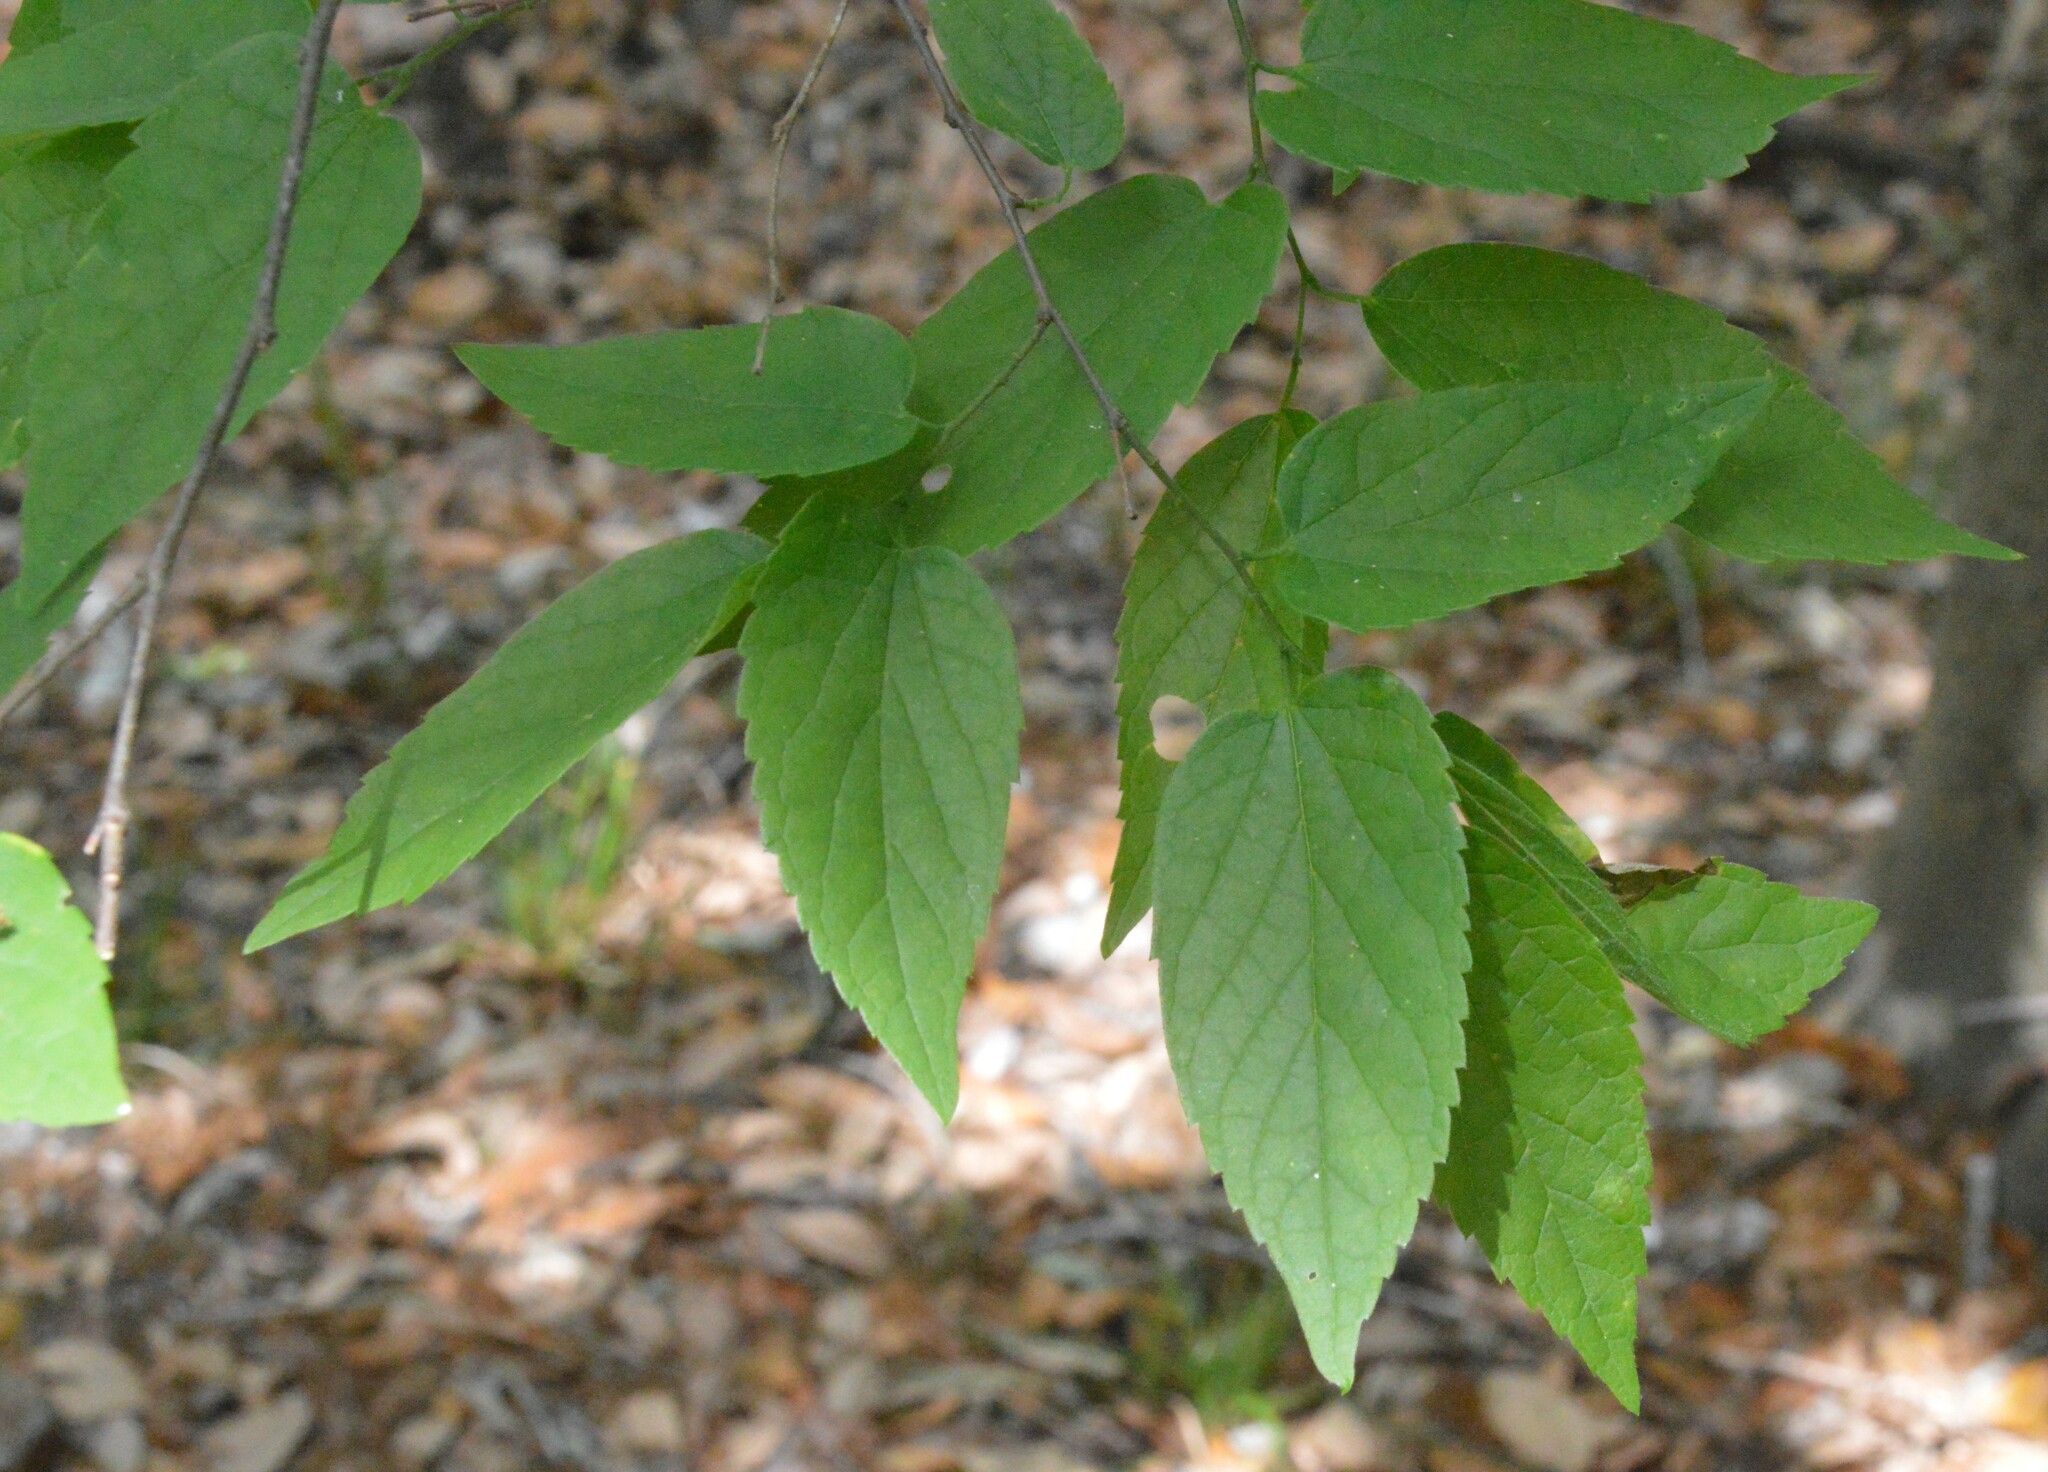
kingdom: Plantae
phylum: Tracheophyta
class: Magnoliopsida
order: Rosales
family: Cannabaceae
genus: Celtis
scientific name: Celtis laevigata
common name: Sugarberry
